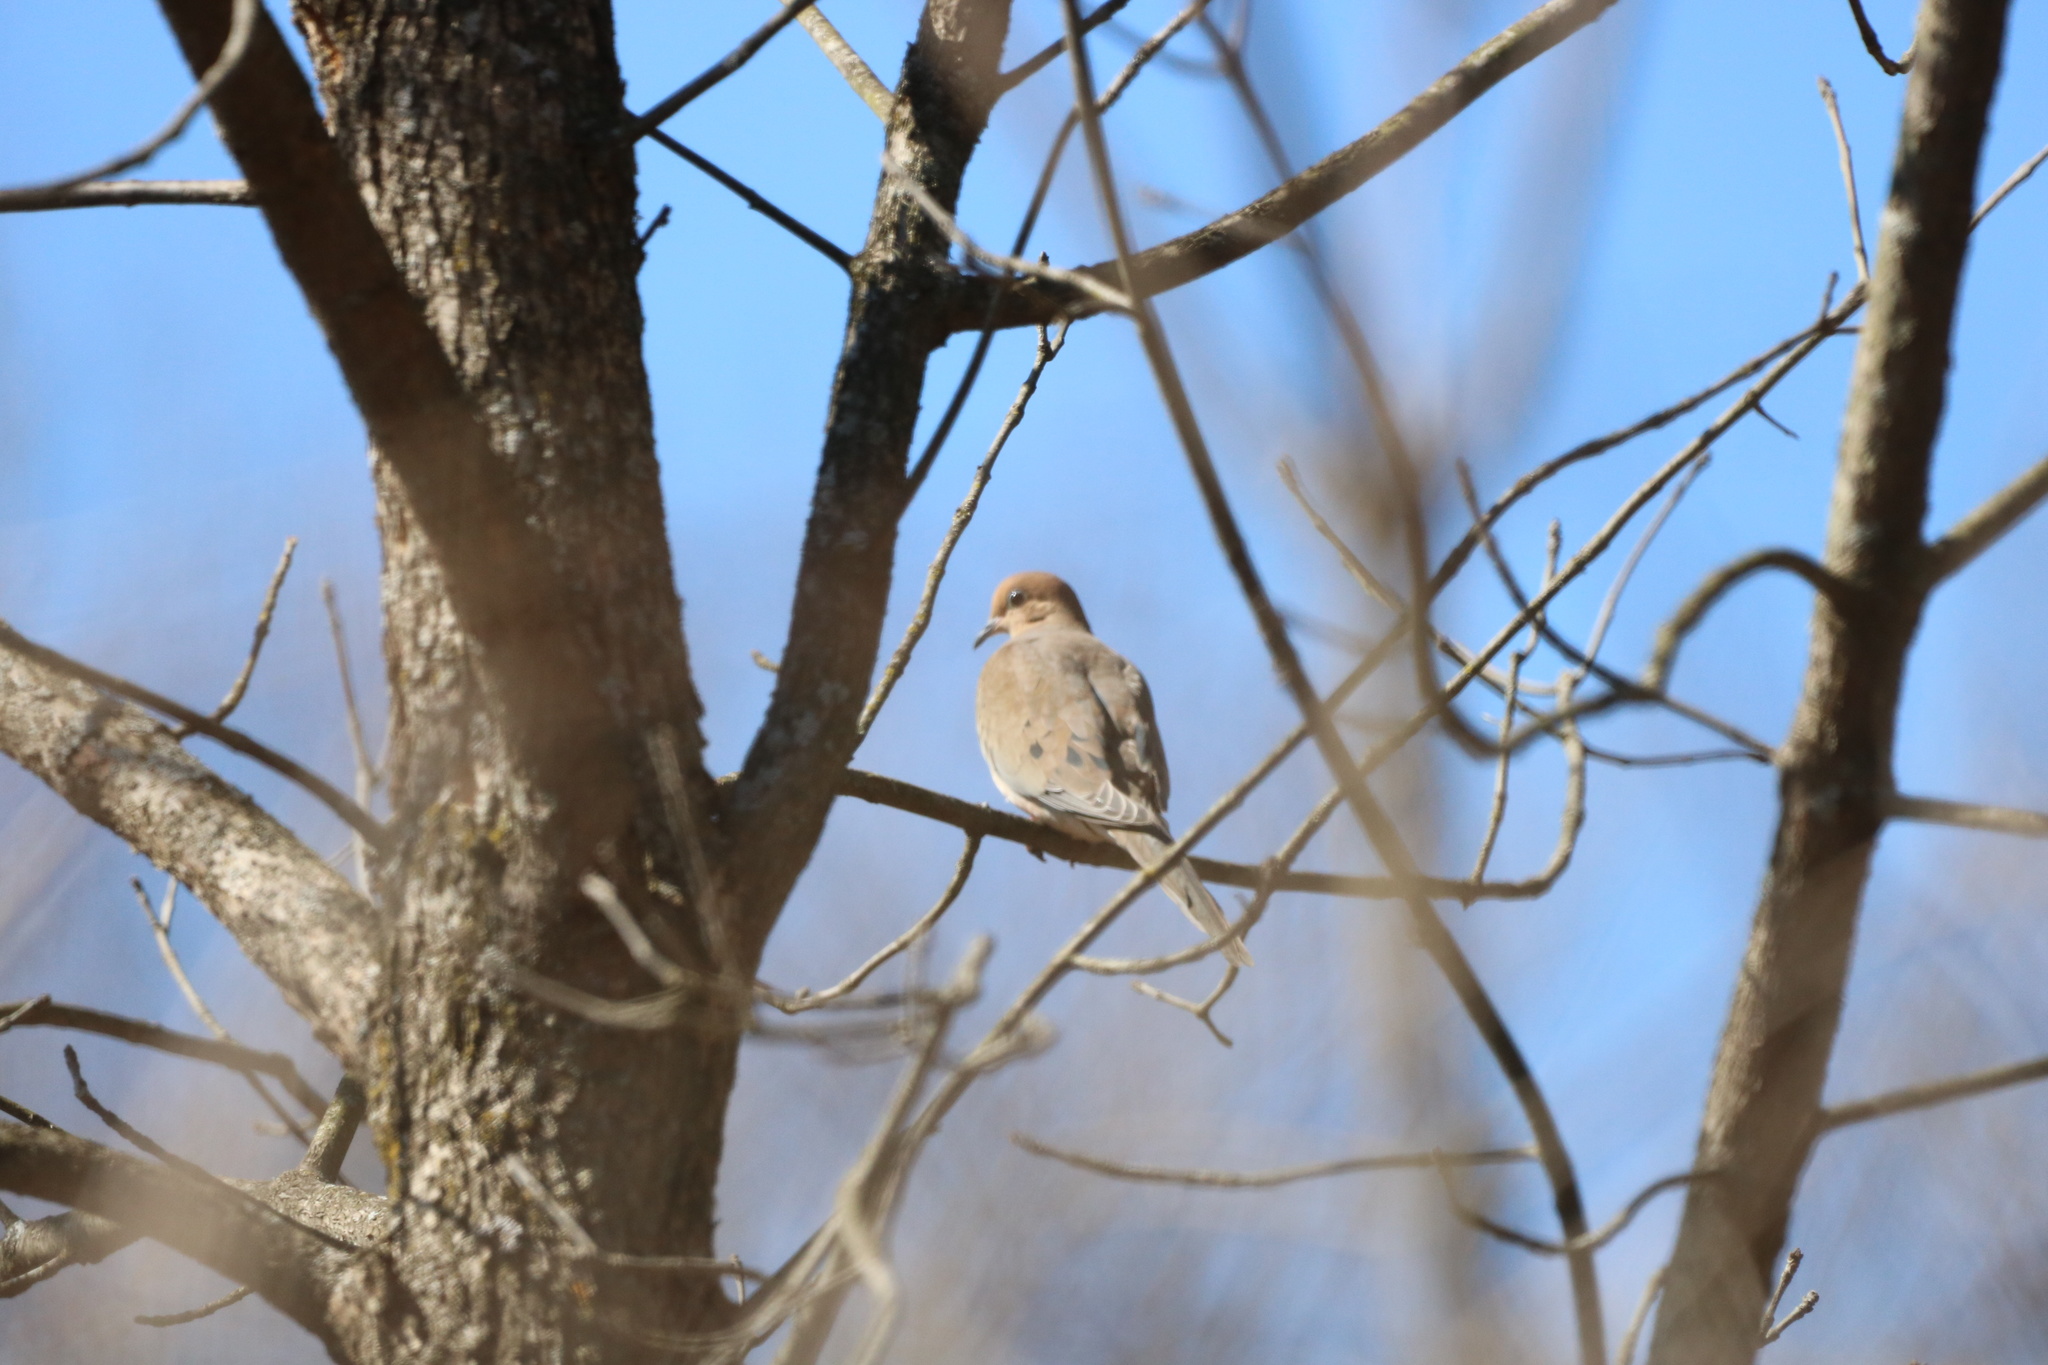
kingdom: Animalia
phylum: Chordata
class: Aves
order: Columbiformes
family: Columbidae
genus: Zenaida
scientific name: Zenaida macroura
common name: Mourning dove
